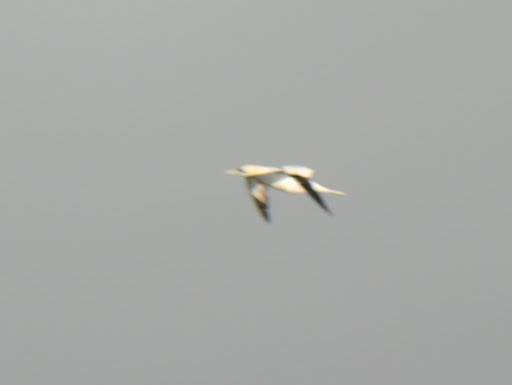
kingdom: Animalia
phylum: Chordata
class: Aves
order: Suliformes
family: Sulidae
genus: Morus
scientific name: Morus bassanus
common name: Northern gannet
